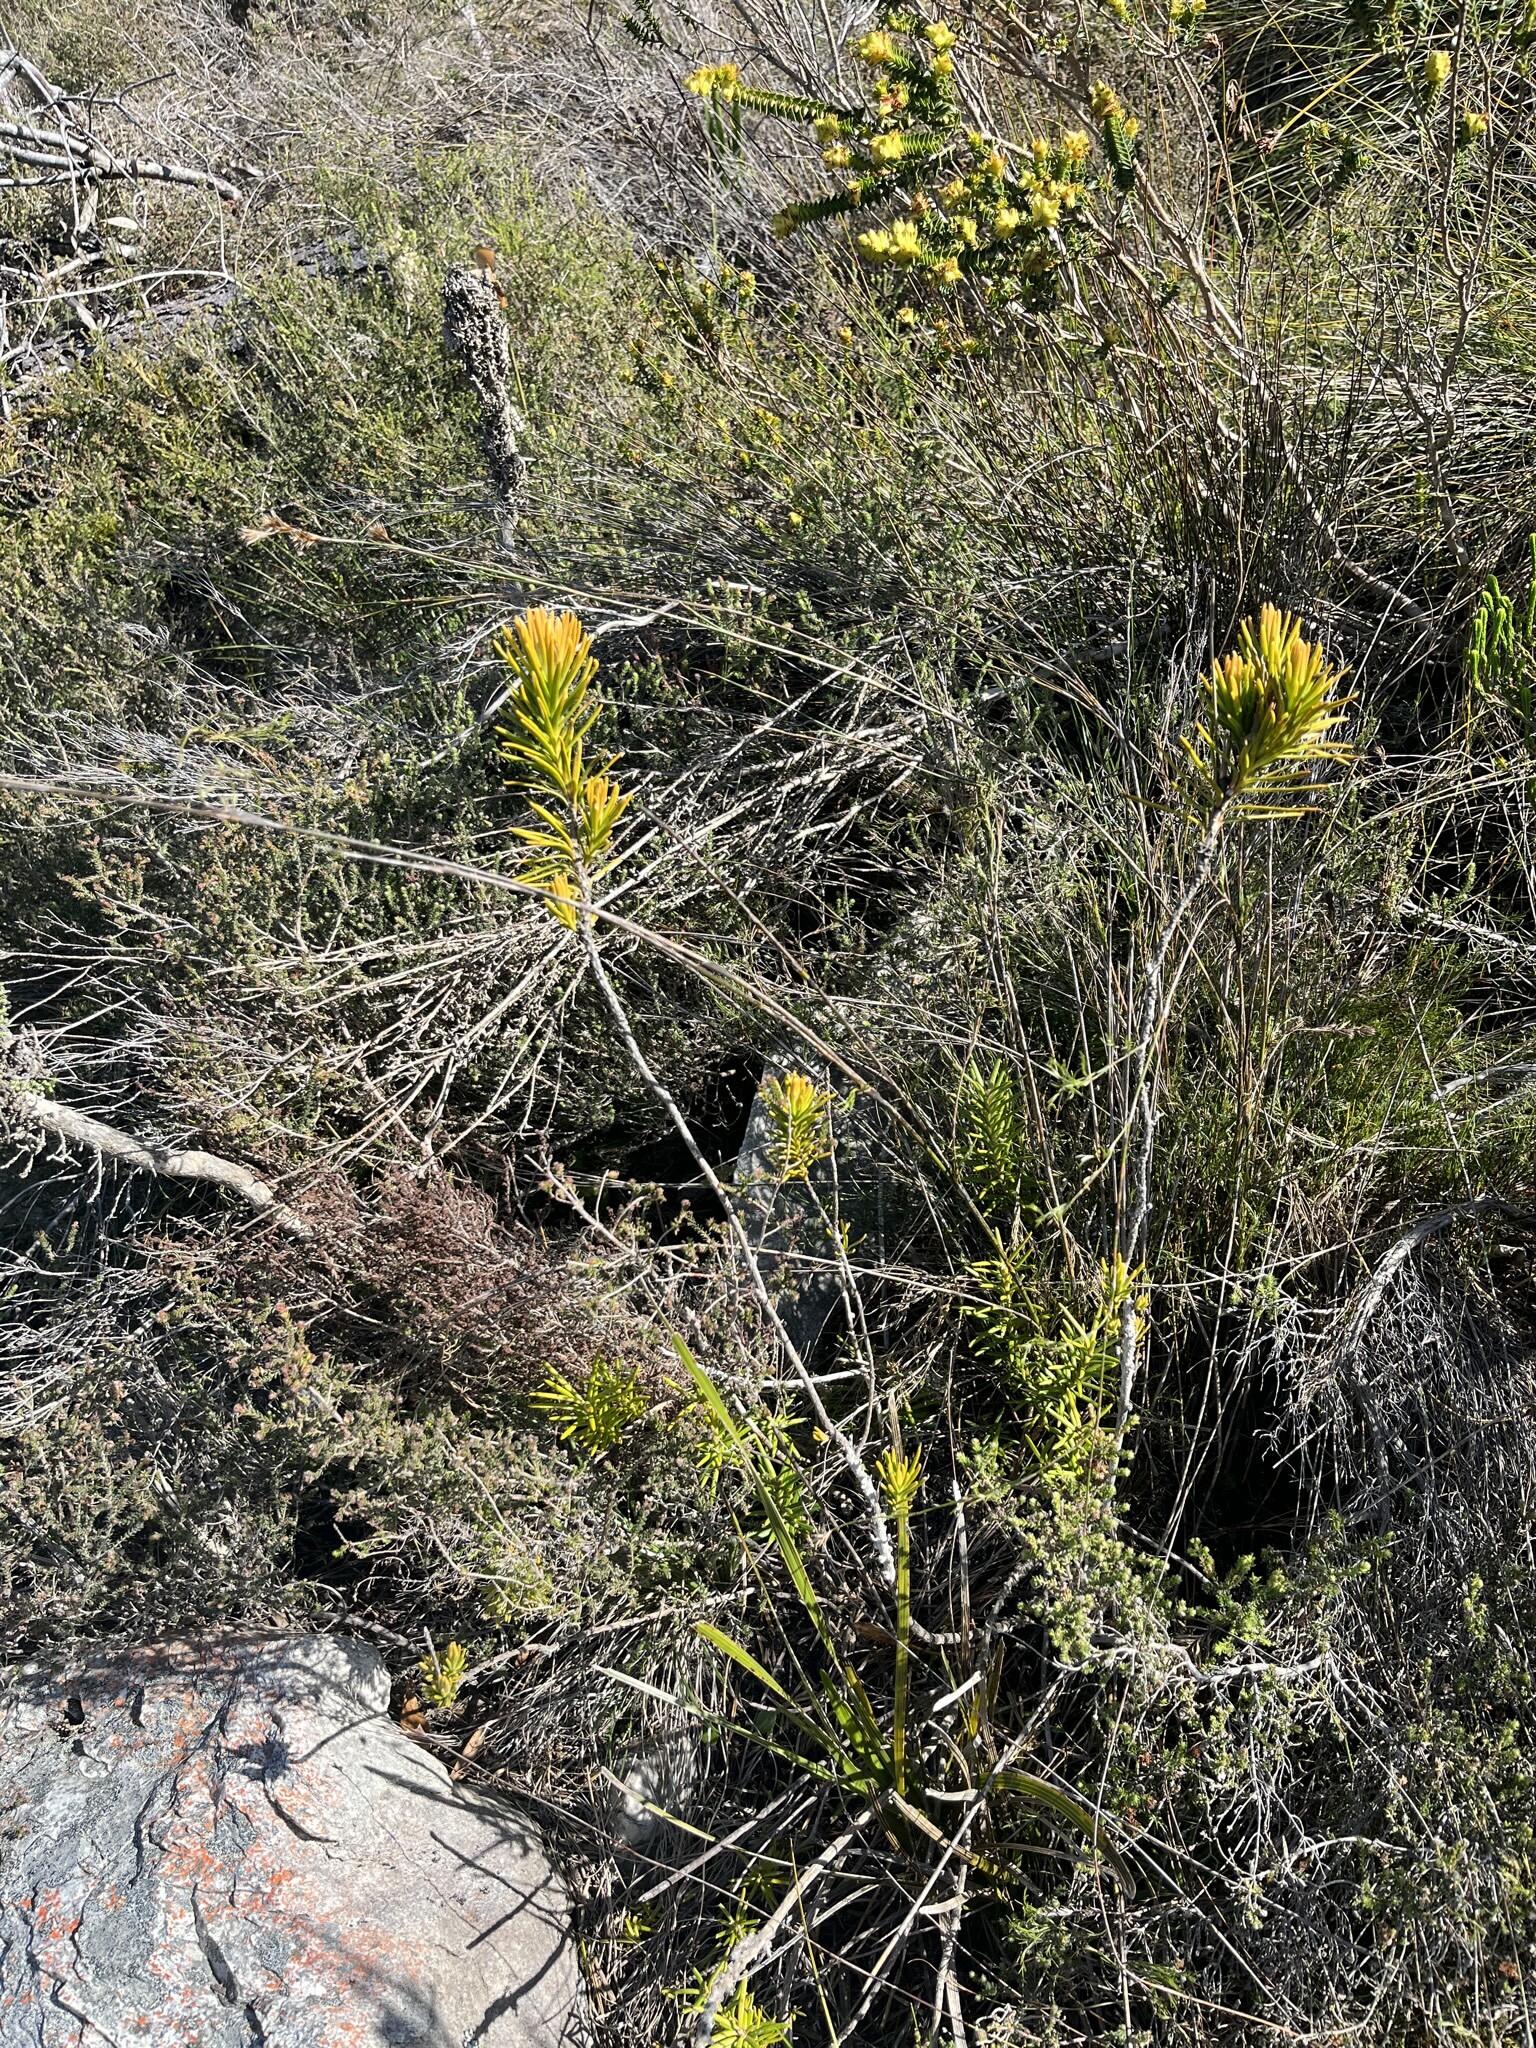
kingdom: Plantae
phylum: Tracheophyta
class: Magnoliopsida
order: Lamiales
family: Stilbaceae
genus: Retzia
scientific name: Retzia capensis
